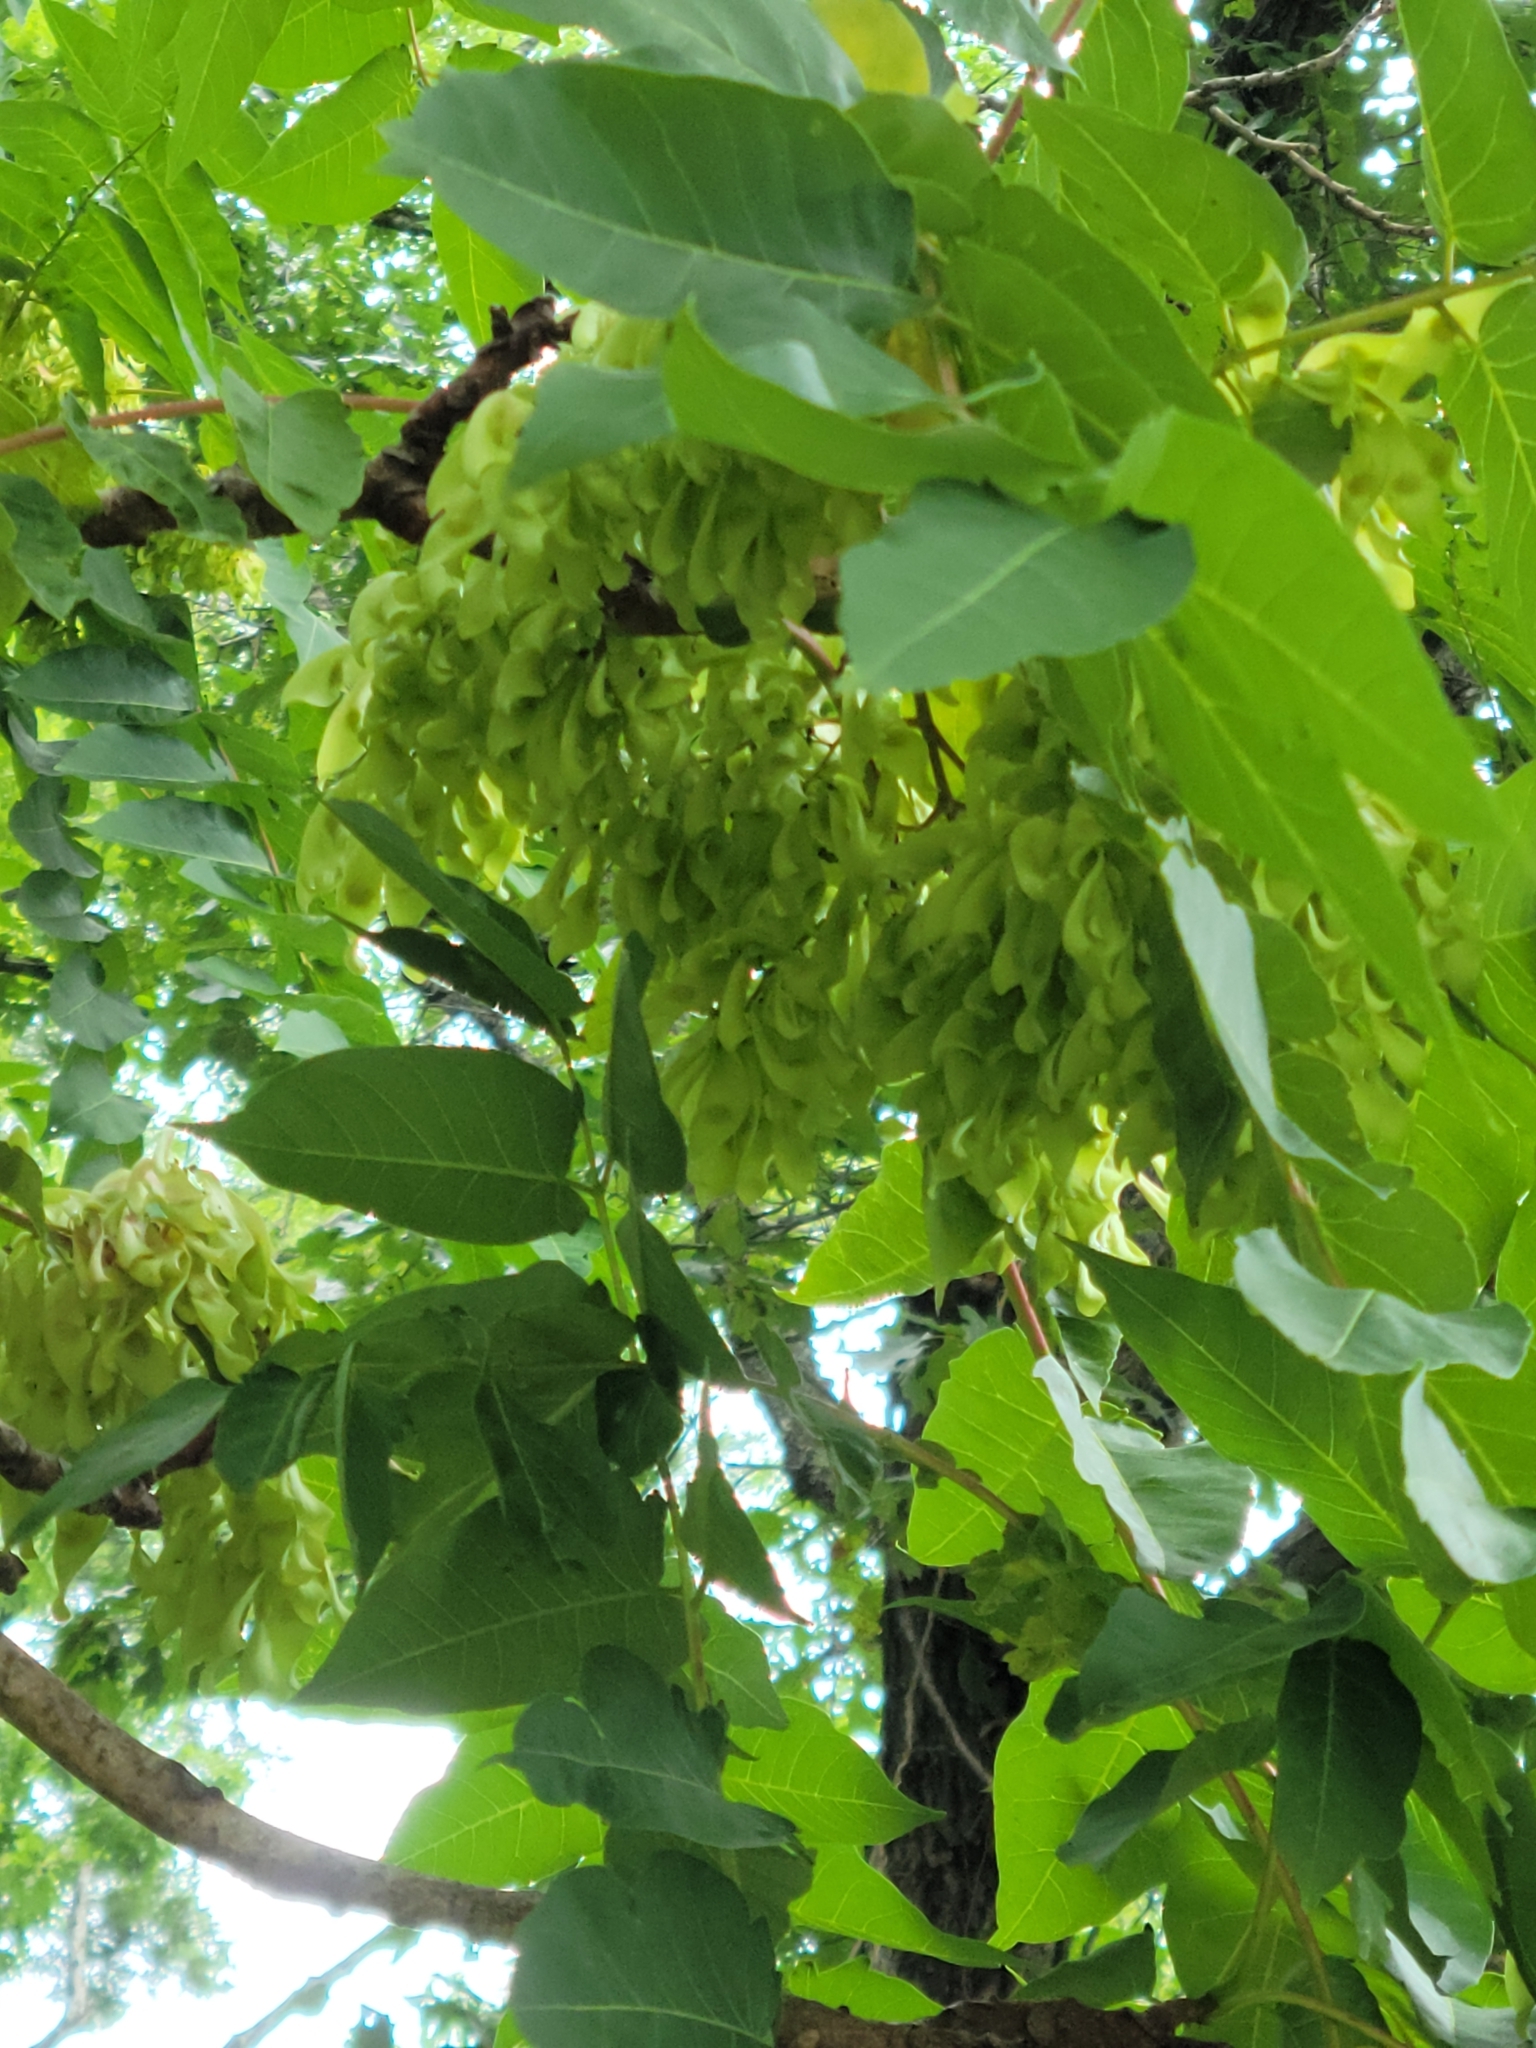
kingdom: Plantae
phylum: Tracheophyta
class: Magnoliopsida
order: Sapindales
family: Simaroubaceae
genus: Ailanthus
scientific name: Ailanthus altissima
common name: Tree-of-heaven
